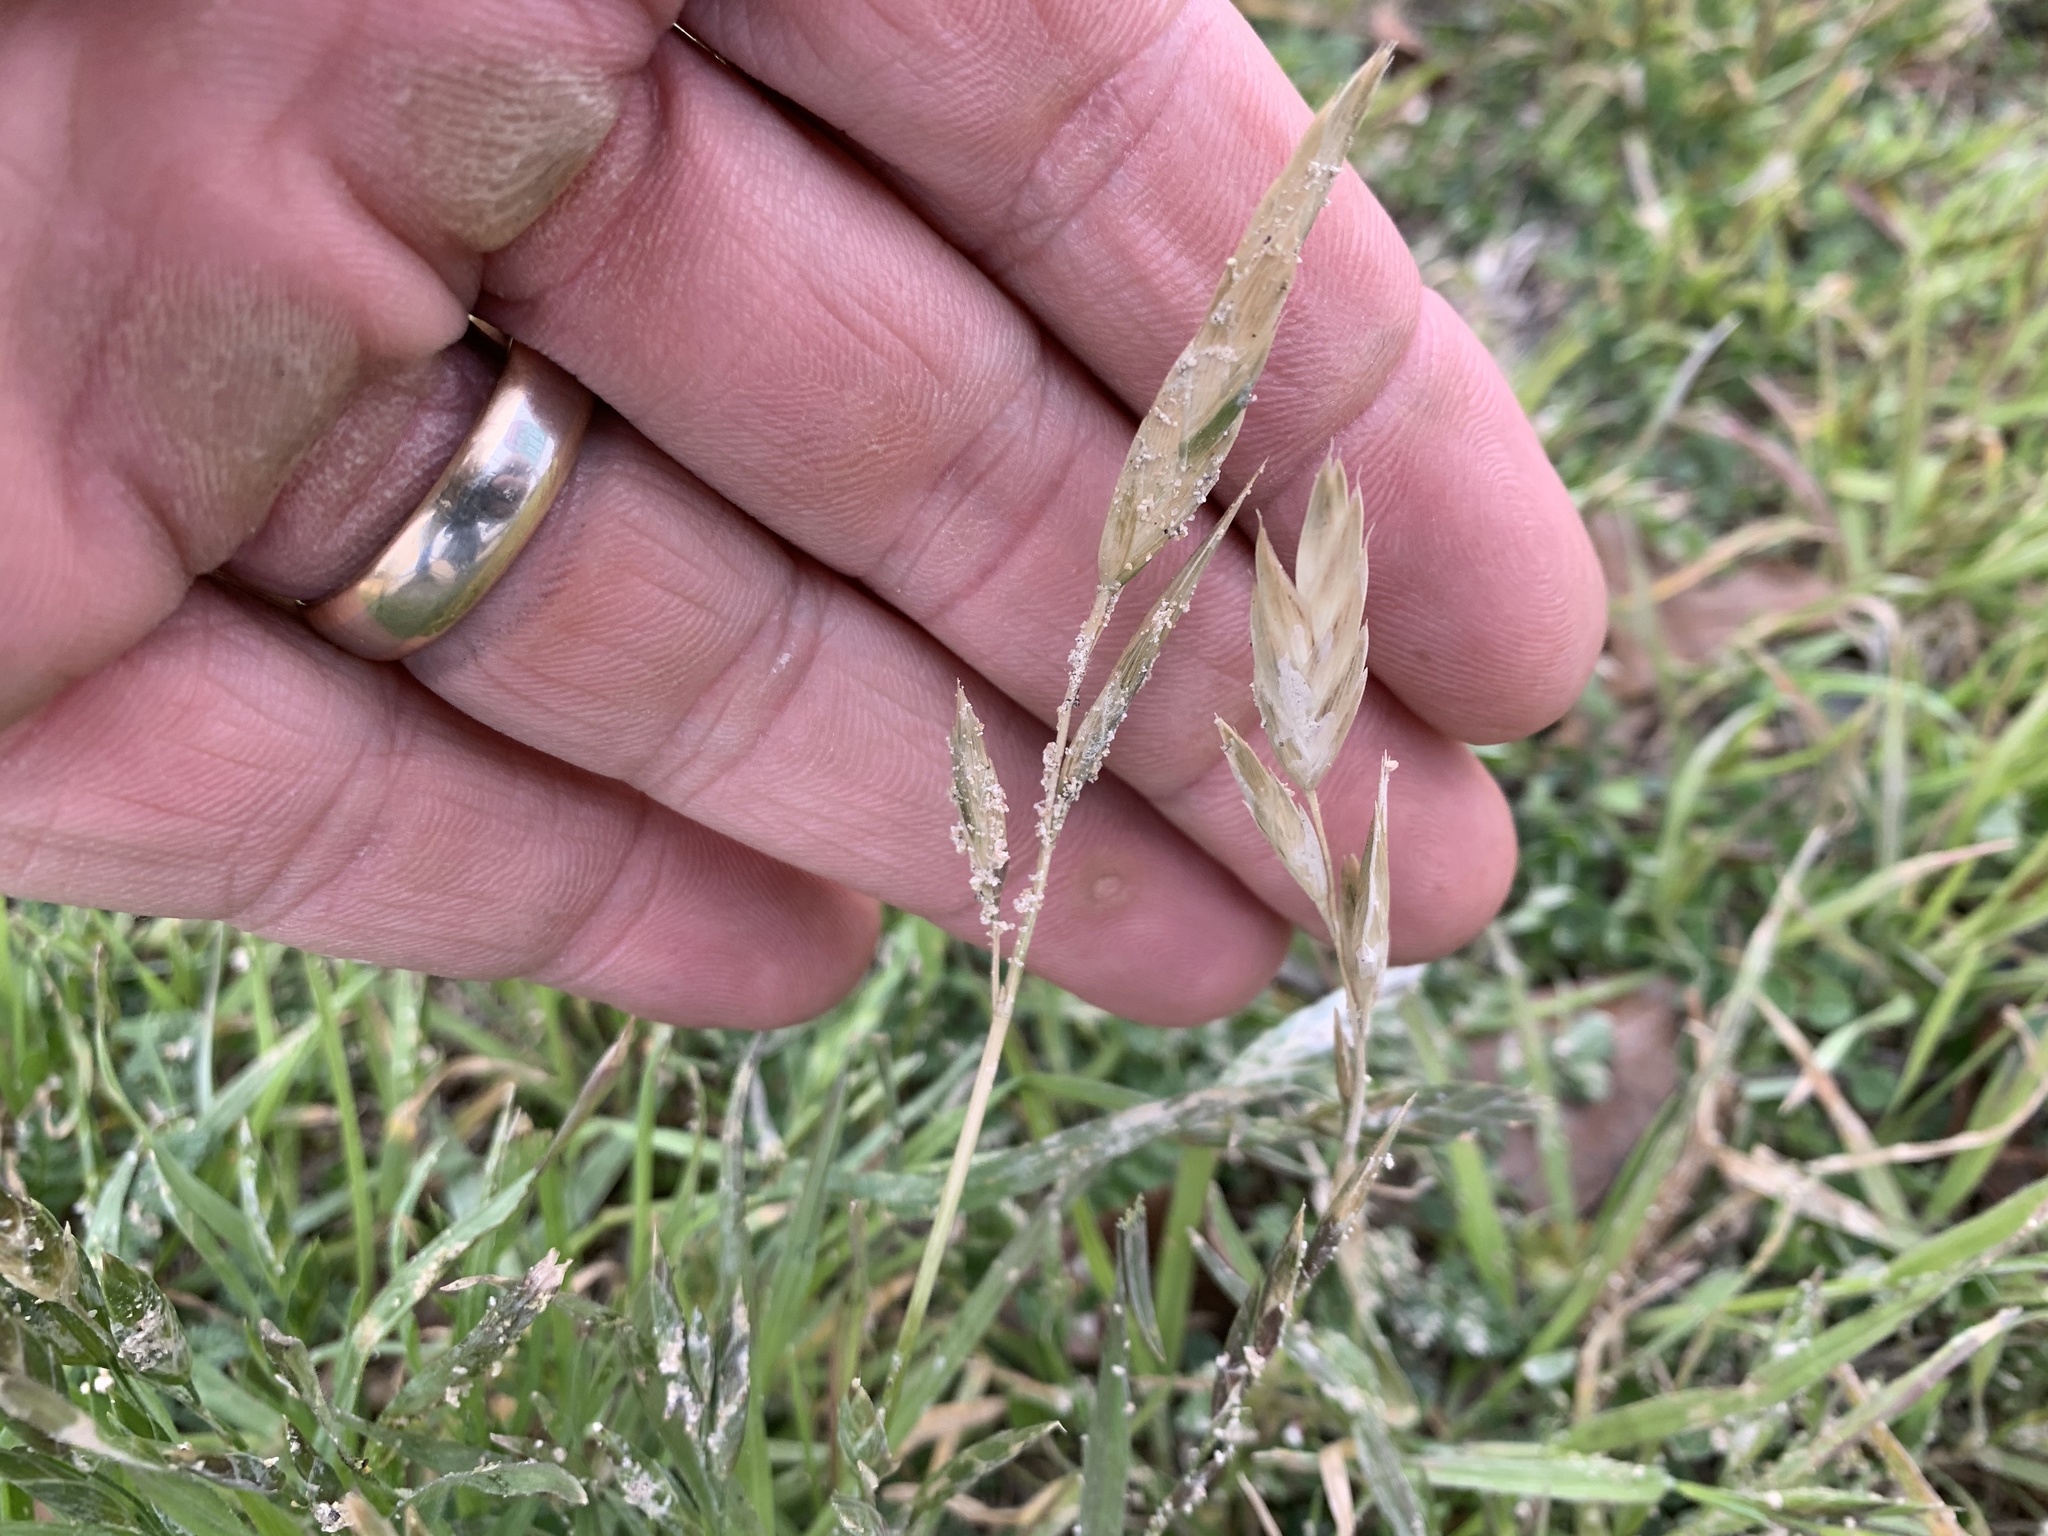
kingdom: Plantae
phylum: Tracheophyta
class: Liliopsida
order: Poales
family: Poaceae
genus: Bromus
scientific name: Bromus catharticus
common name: Rescuegrass
